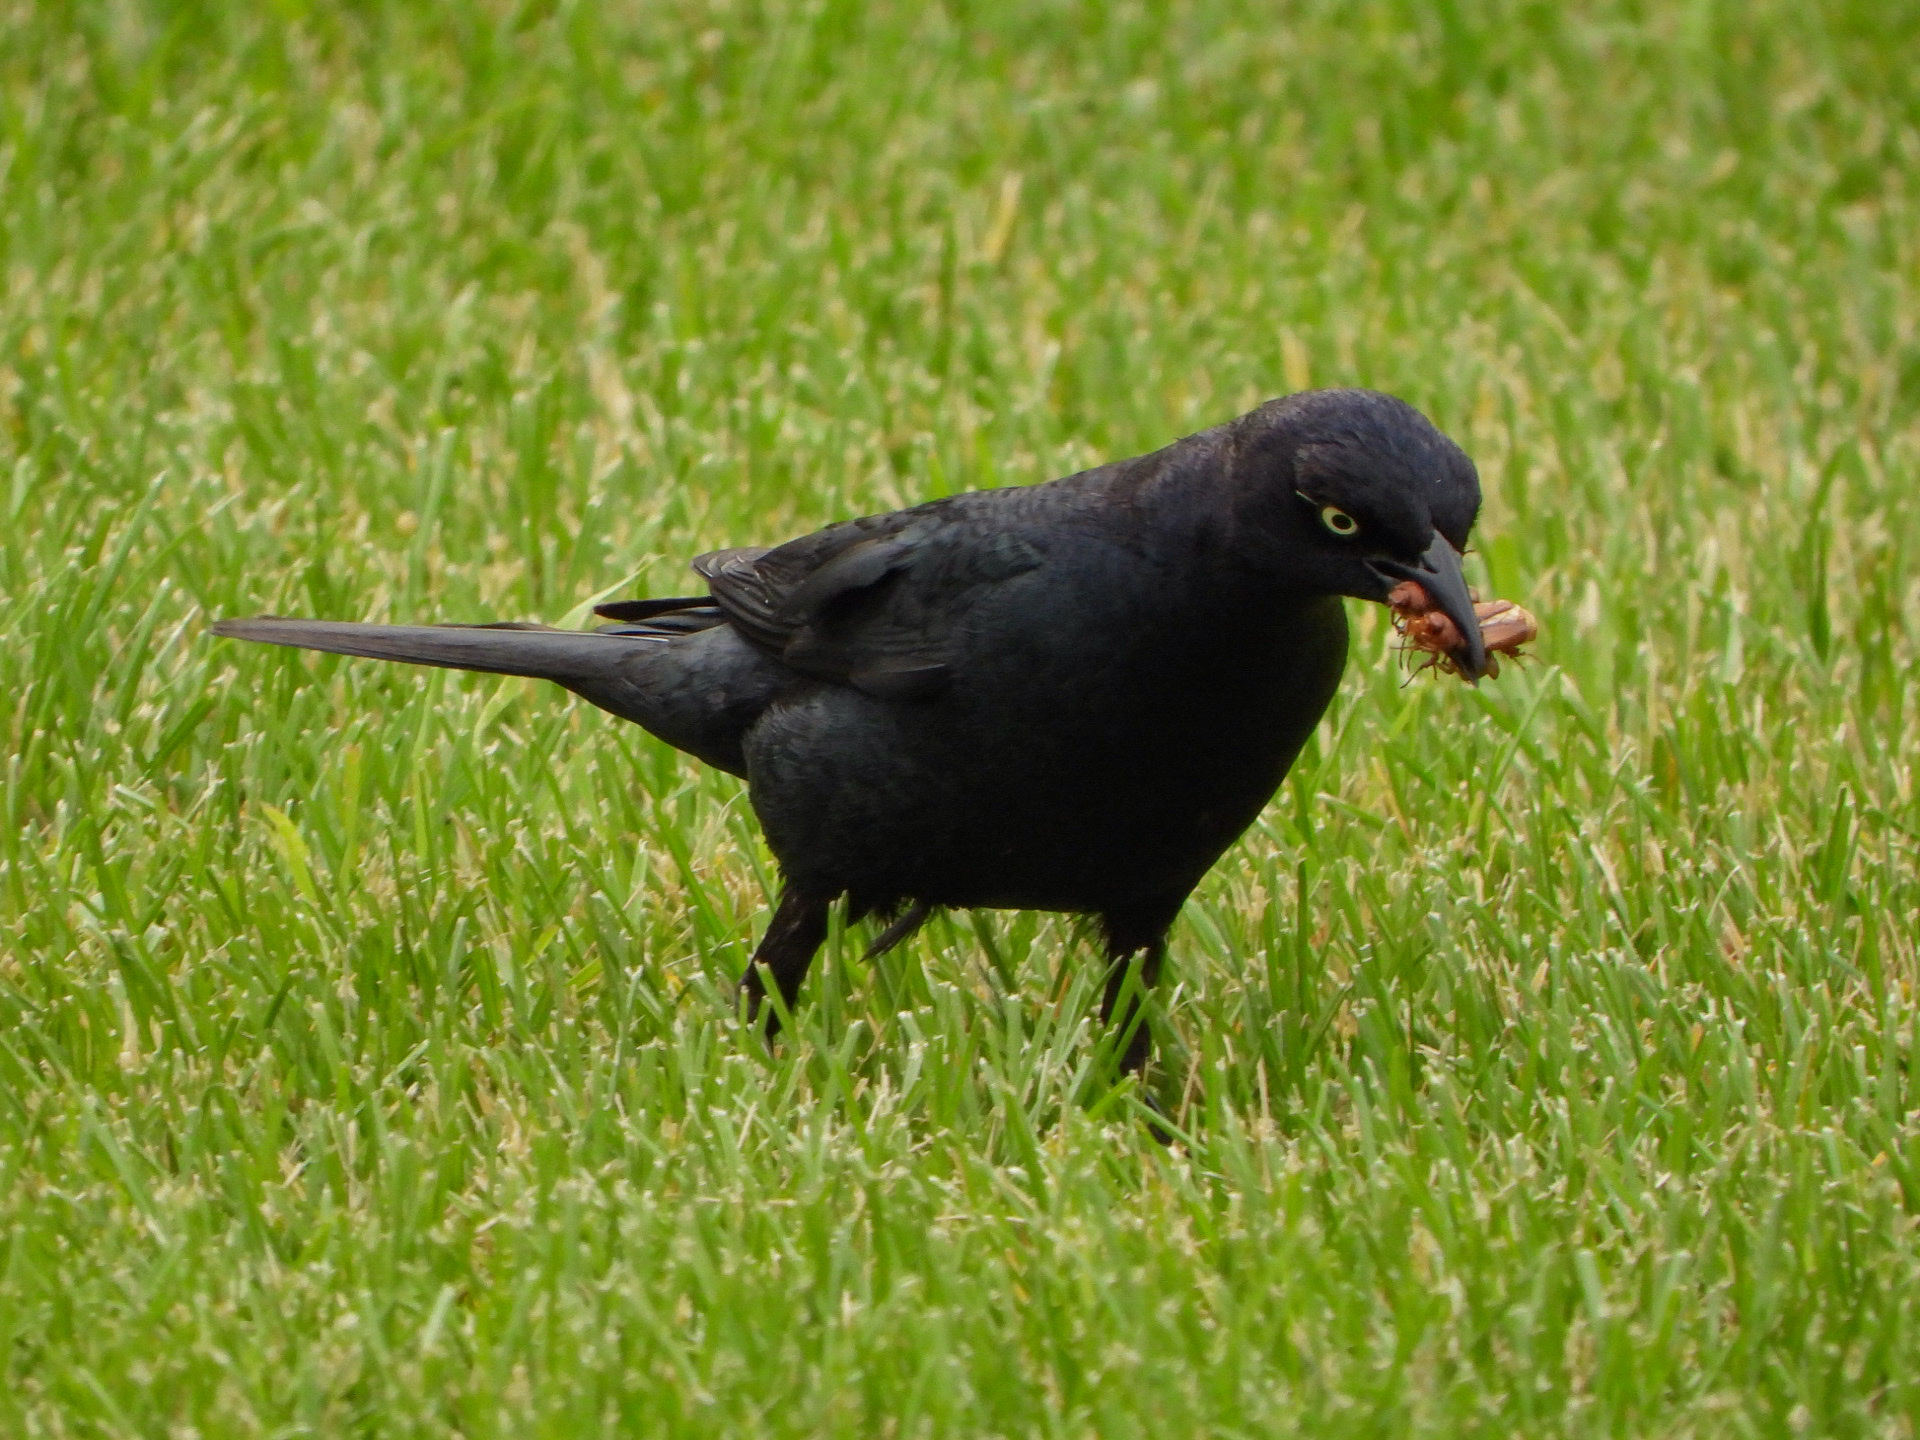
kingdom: Animalia
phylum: Chordata
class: Aves
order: Passeriformes
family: Icteridae
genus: Euphagus
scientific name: Euphagus cyanocephalus
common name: Brewer's blackbird
